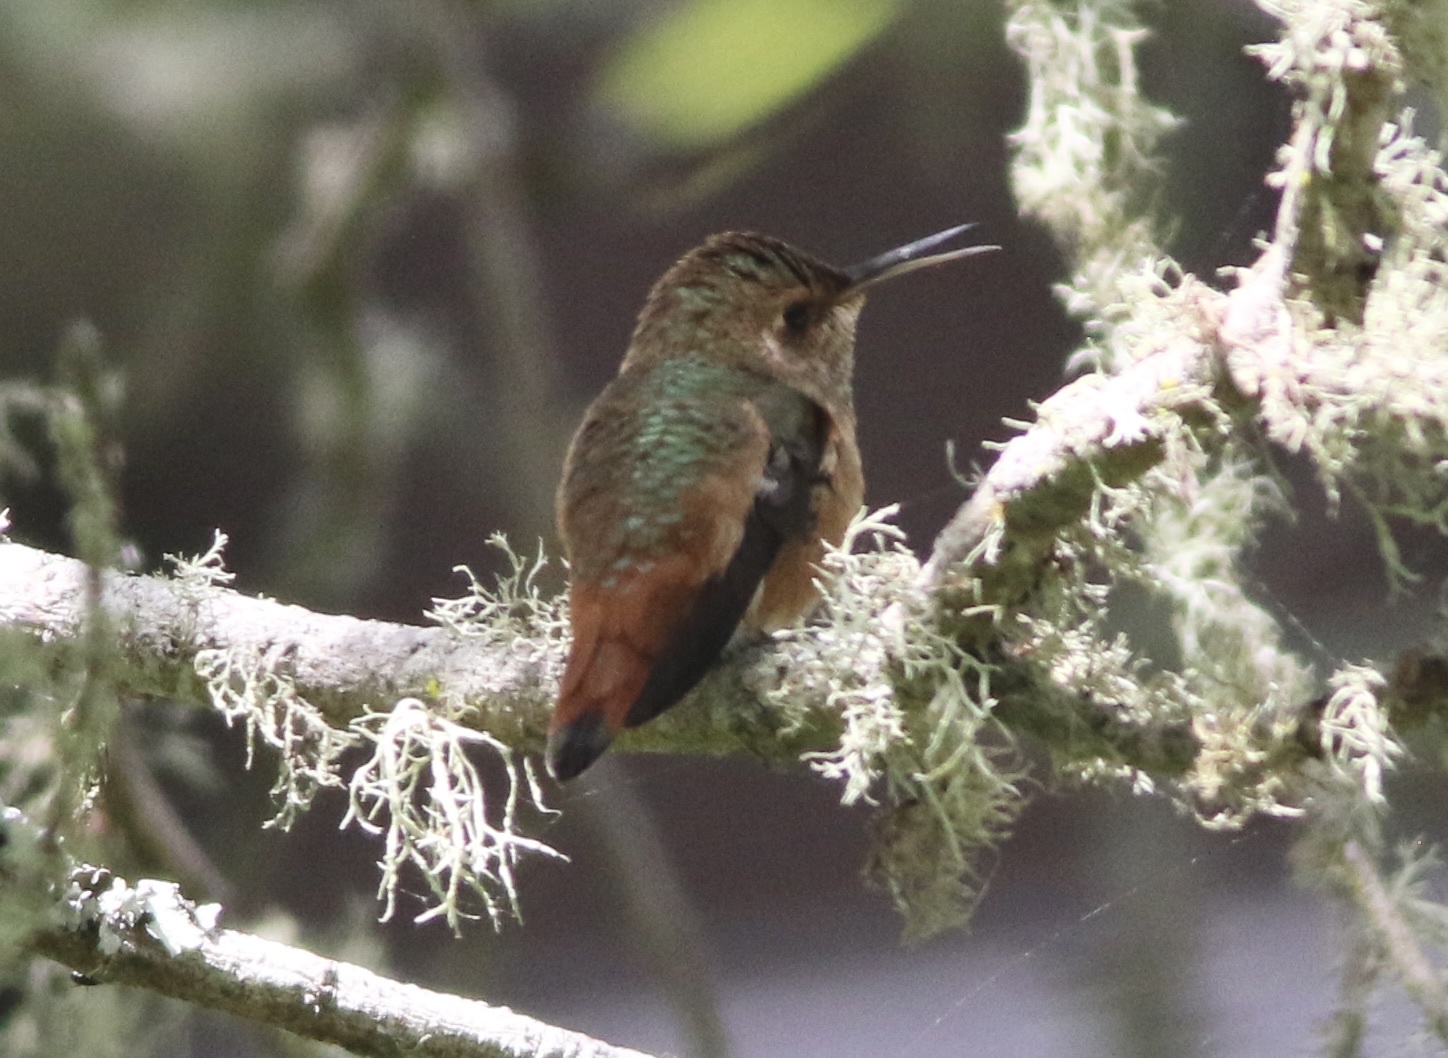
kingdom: Animalia
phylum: Chordata
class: Aves
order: Apodiformes
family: Trochilidae
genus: Selasphorus
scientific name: Selasphorus sasin
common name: Allen's hummingbird
